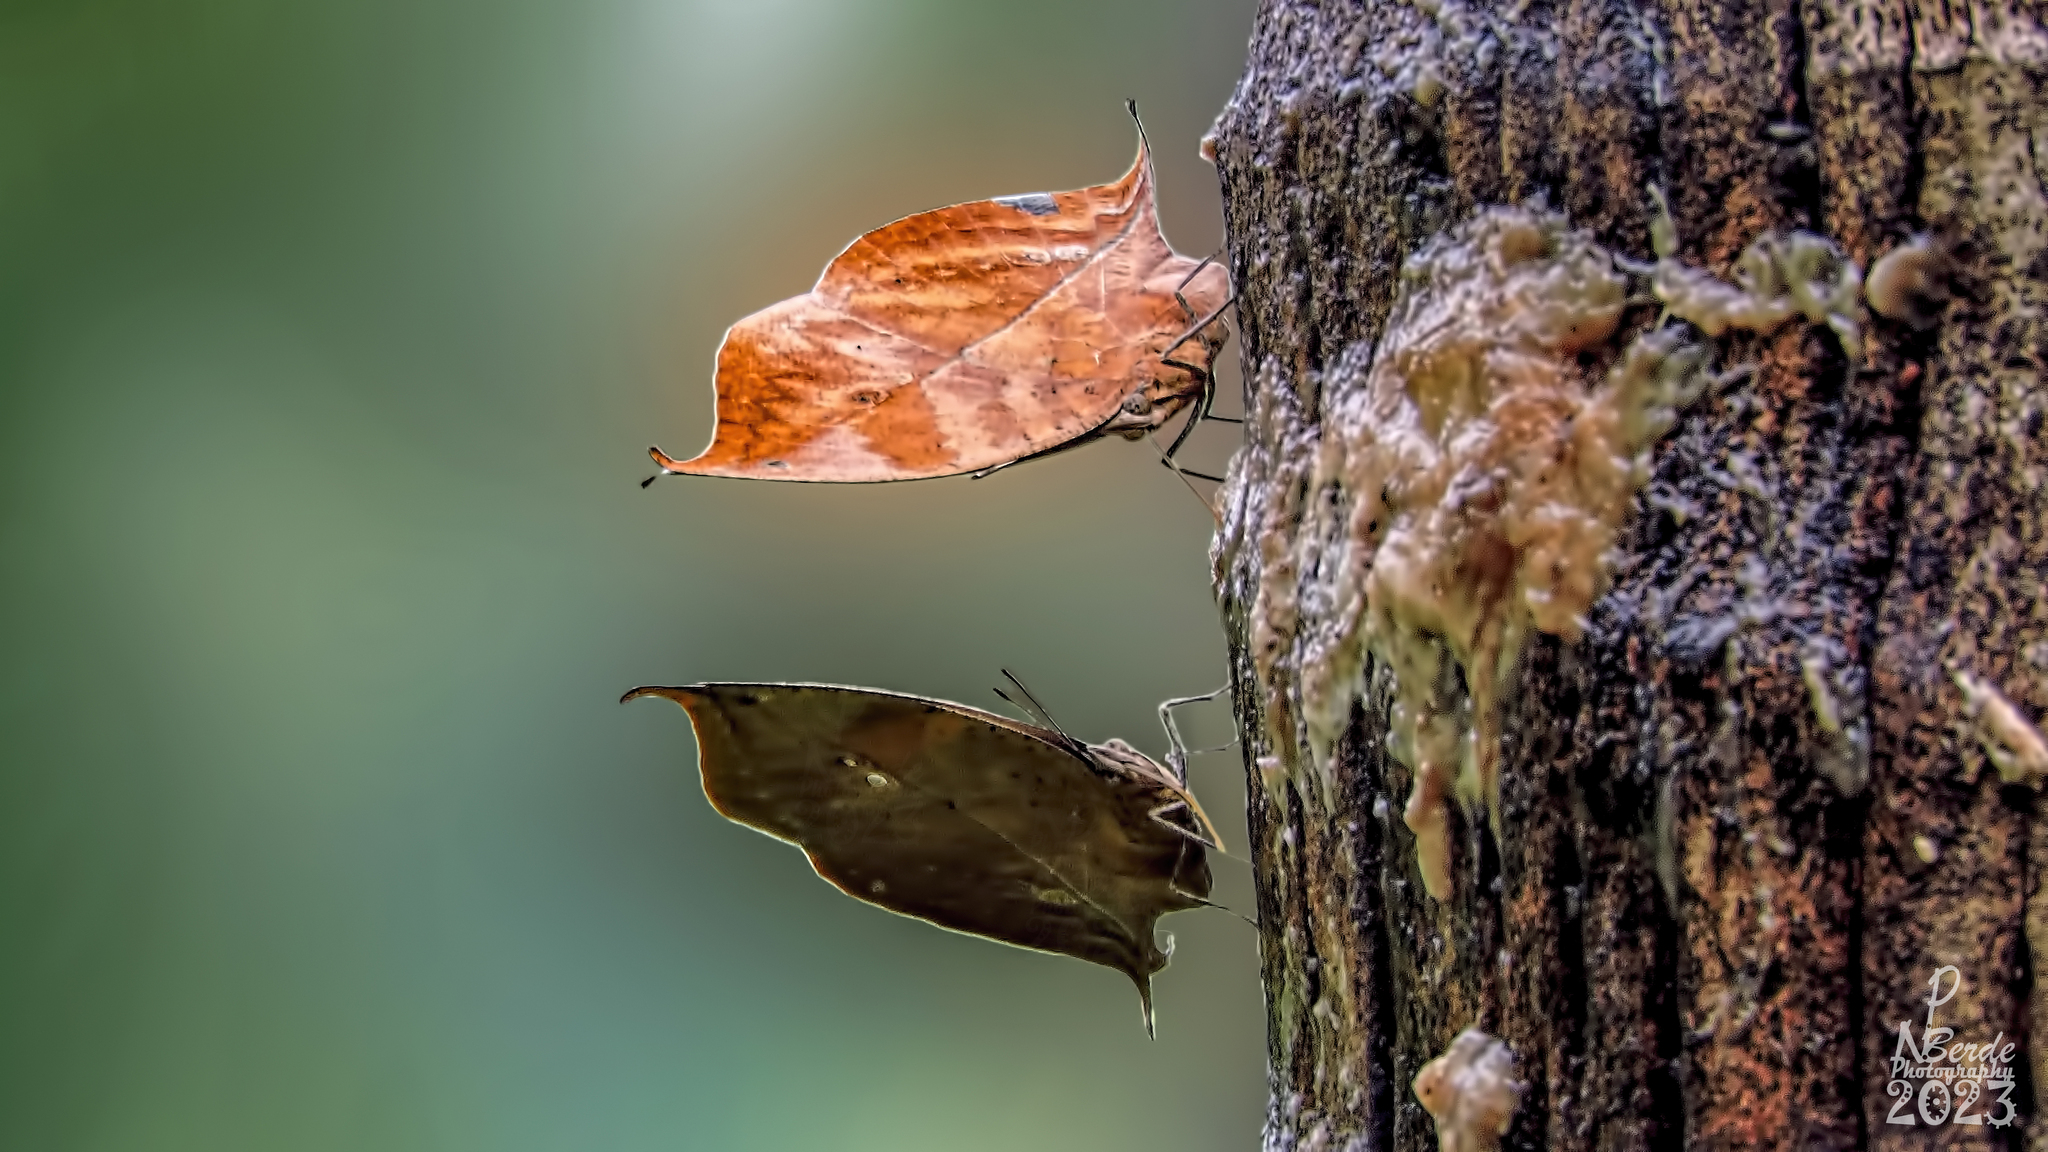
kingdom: Animalia
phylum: Arthropoda
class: Insecta
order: Lepidoptera
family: Nymphalidae
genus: Kallima
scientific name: Kallima horsfieldii
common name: Sahyadri blue oakleaf
